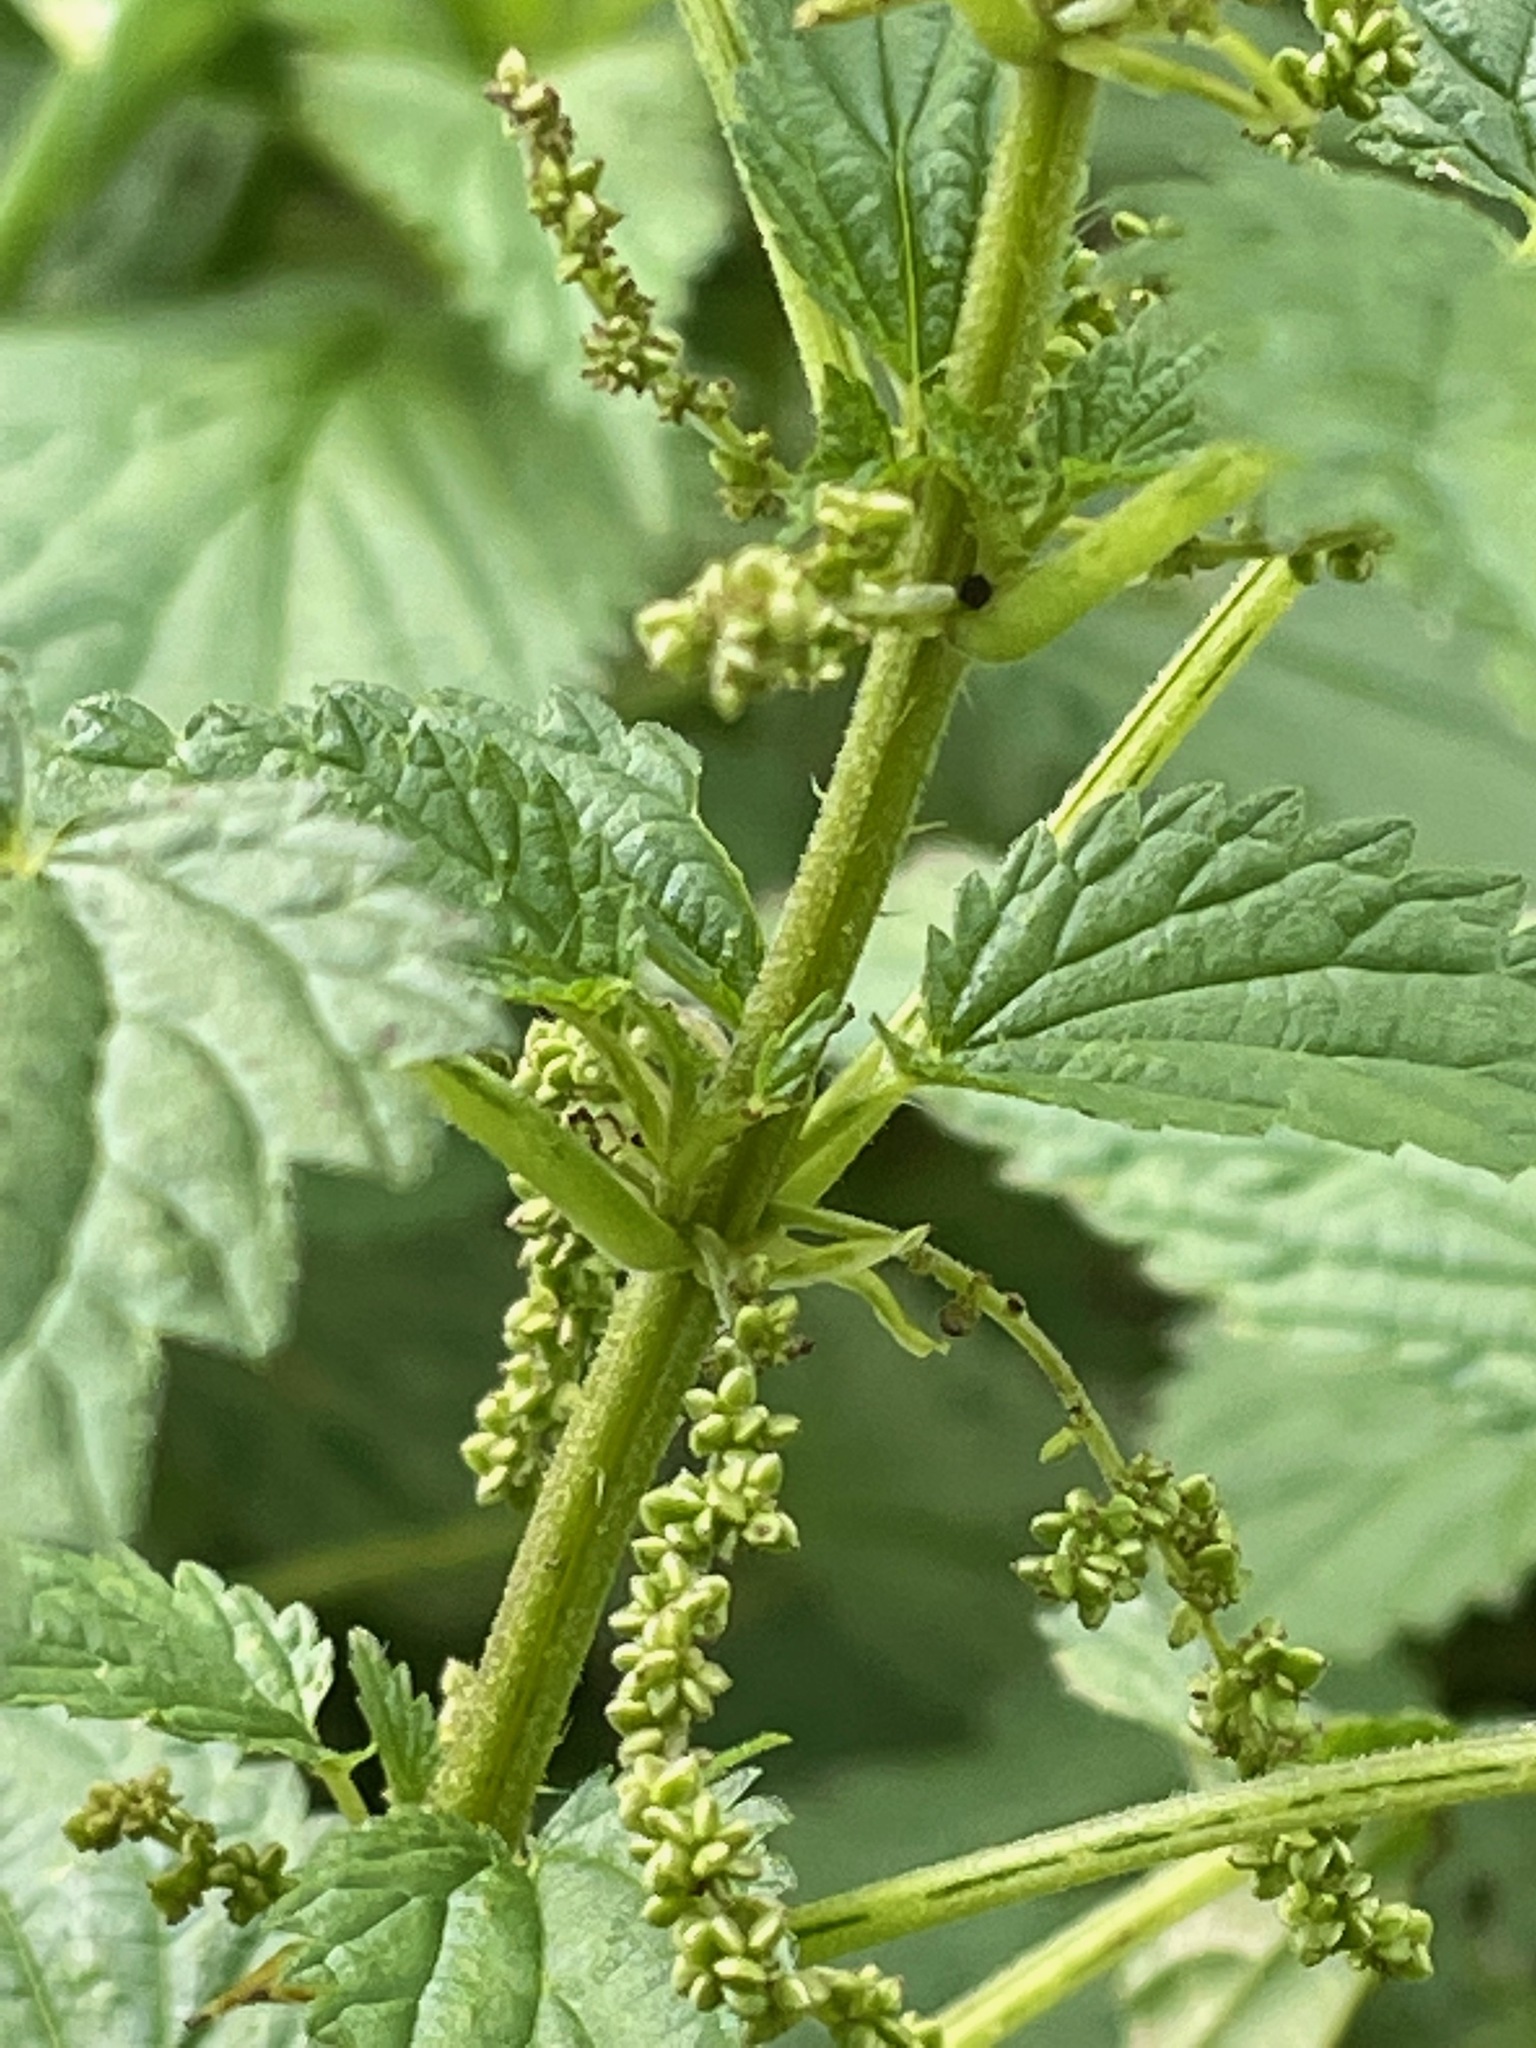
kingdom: Plantae
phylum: Tracheophyta
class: Magnoliopsida
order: Rosales
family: Urticaceae
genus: Urtica
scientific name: Urtica gracilis
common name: Slender stinging nettle
